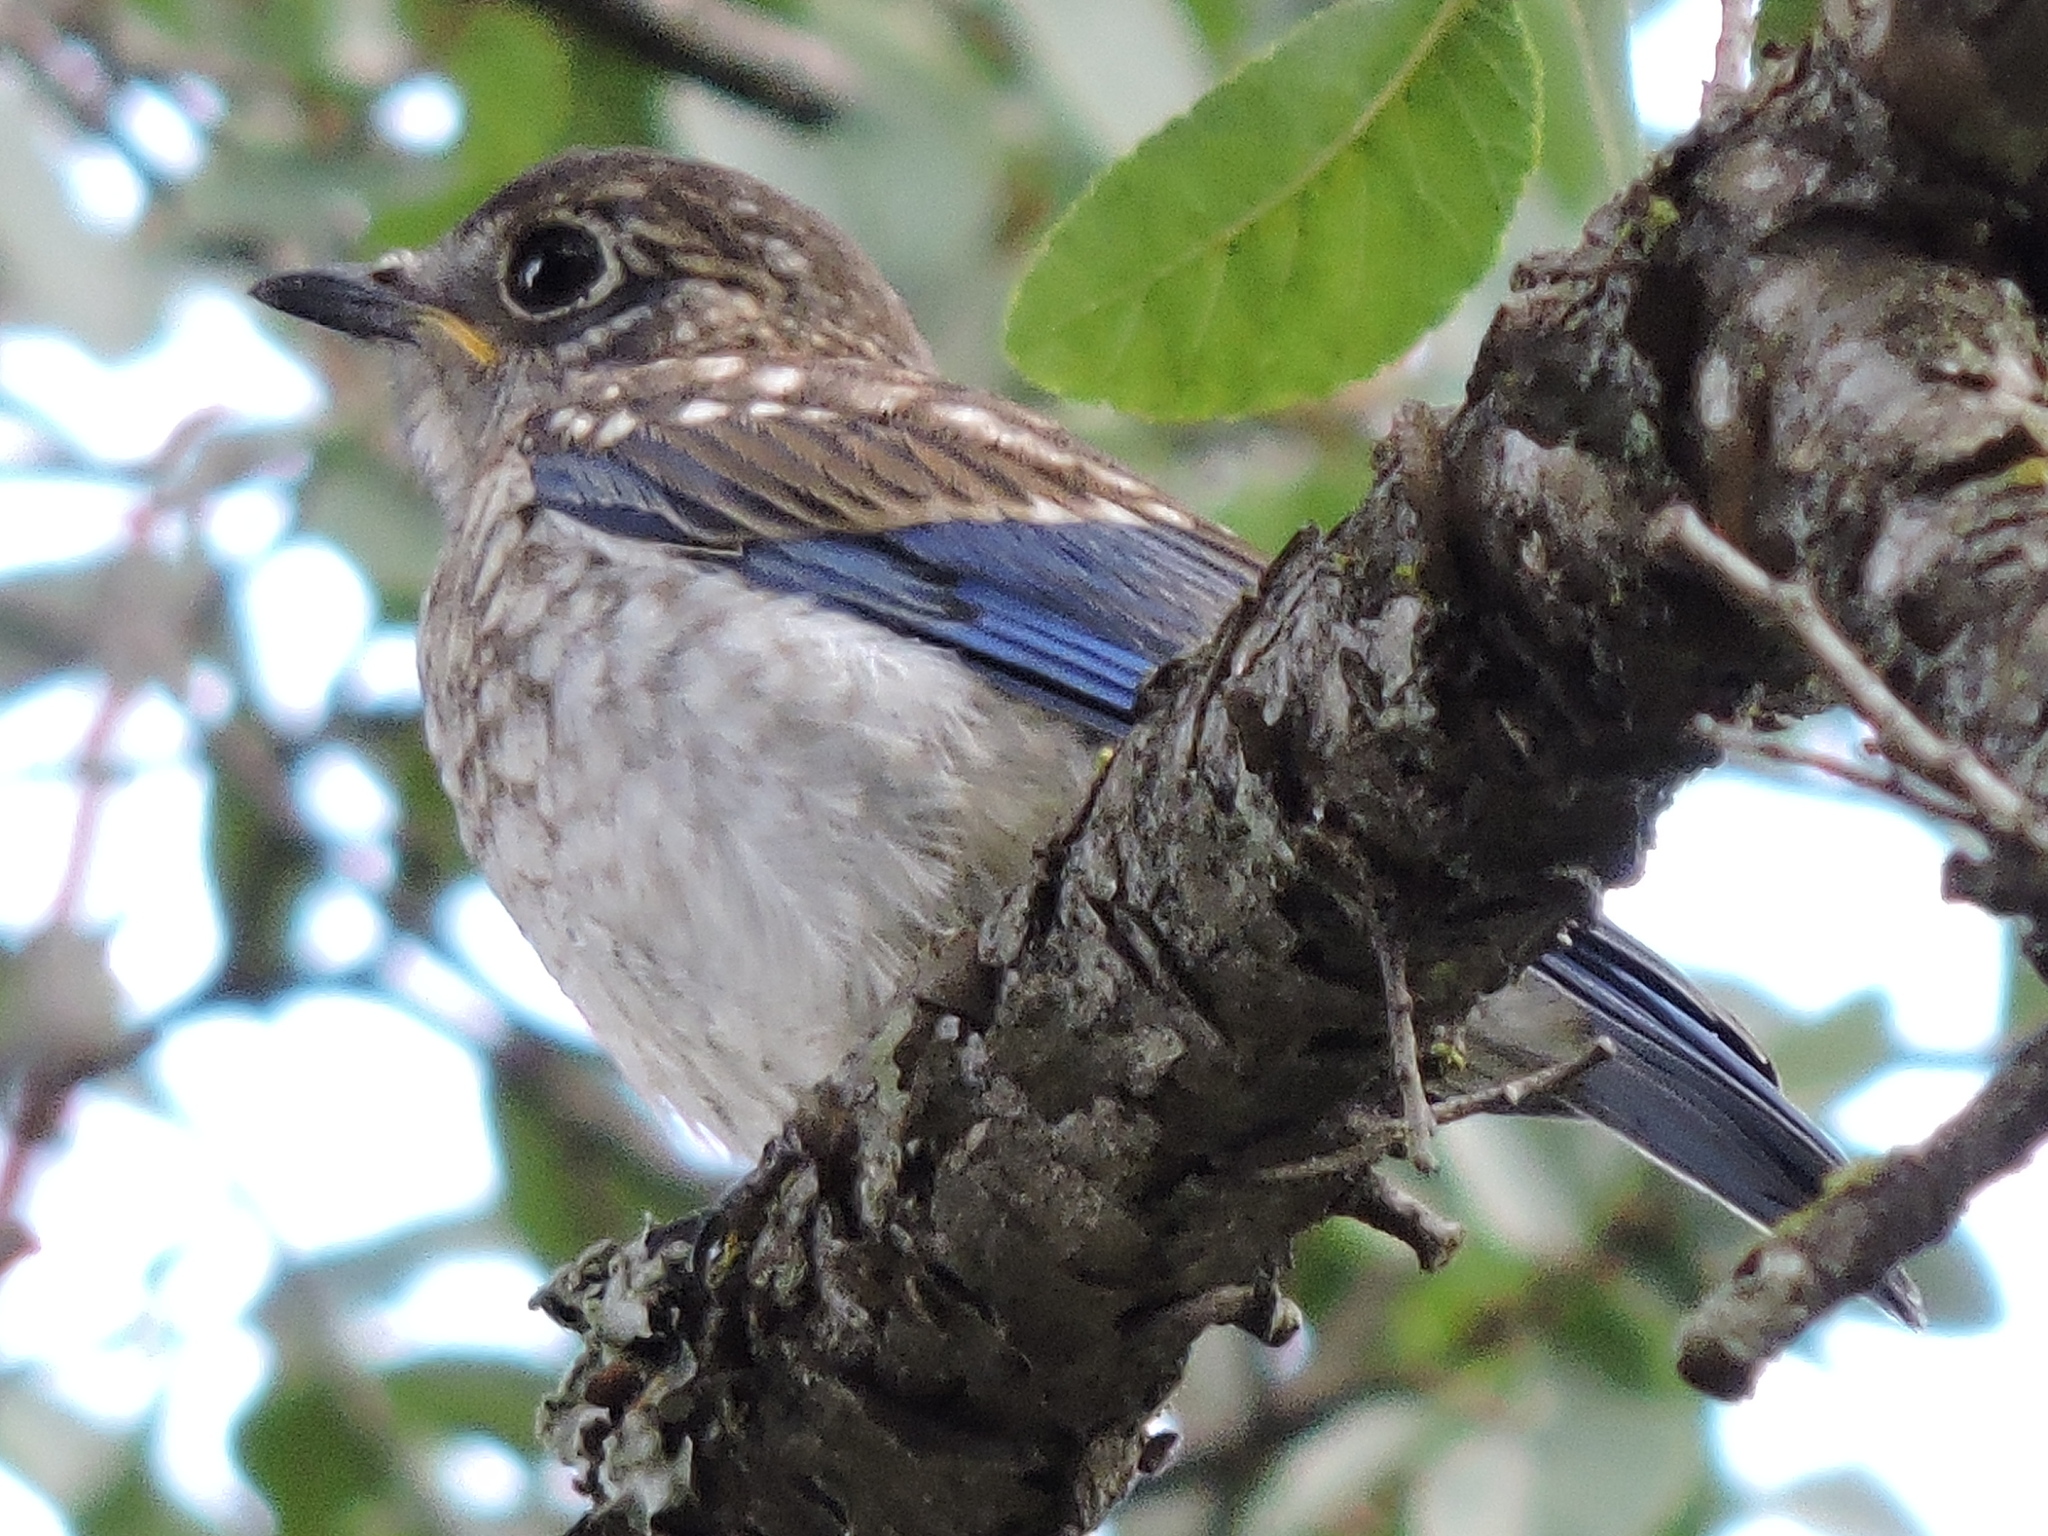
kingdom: Animalia
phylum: Chordata
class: Aves
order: Passeriformes
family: Turdidae
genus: Sialia
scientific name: Sialia sialis
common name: Eastern bluebird
